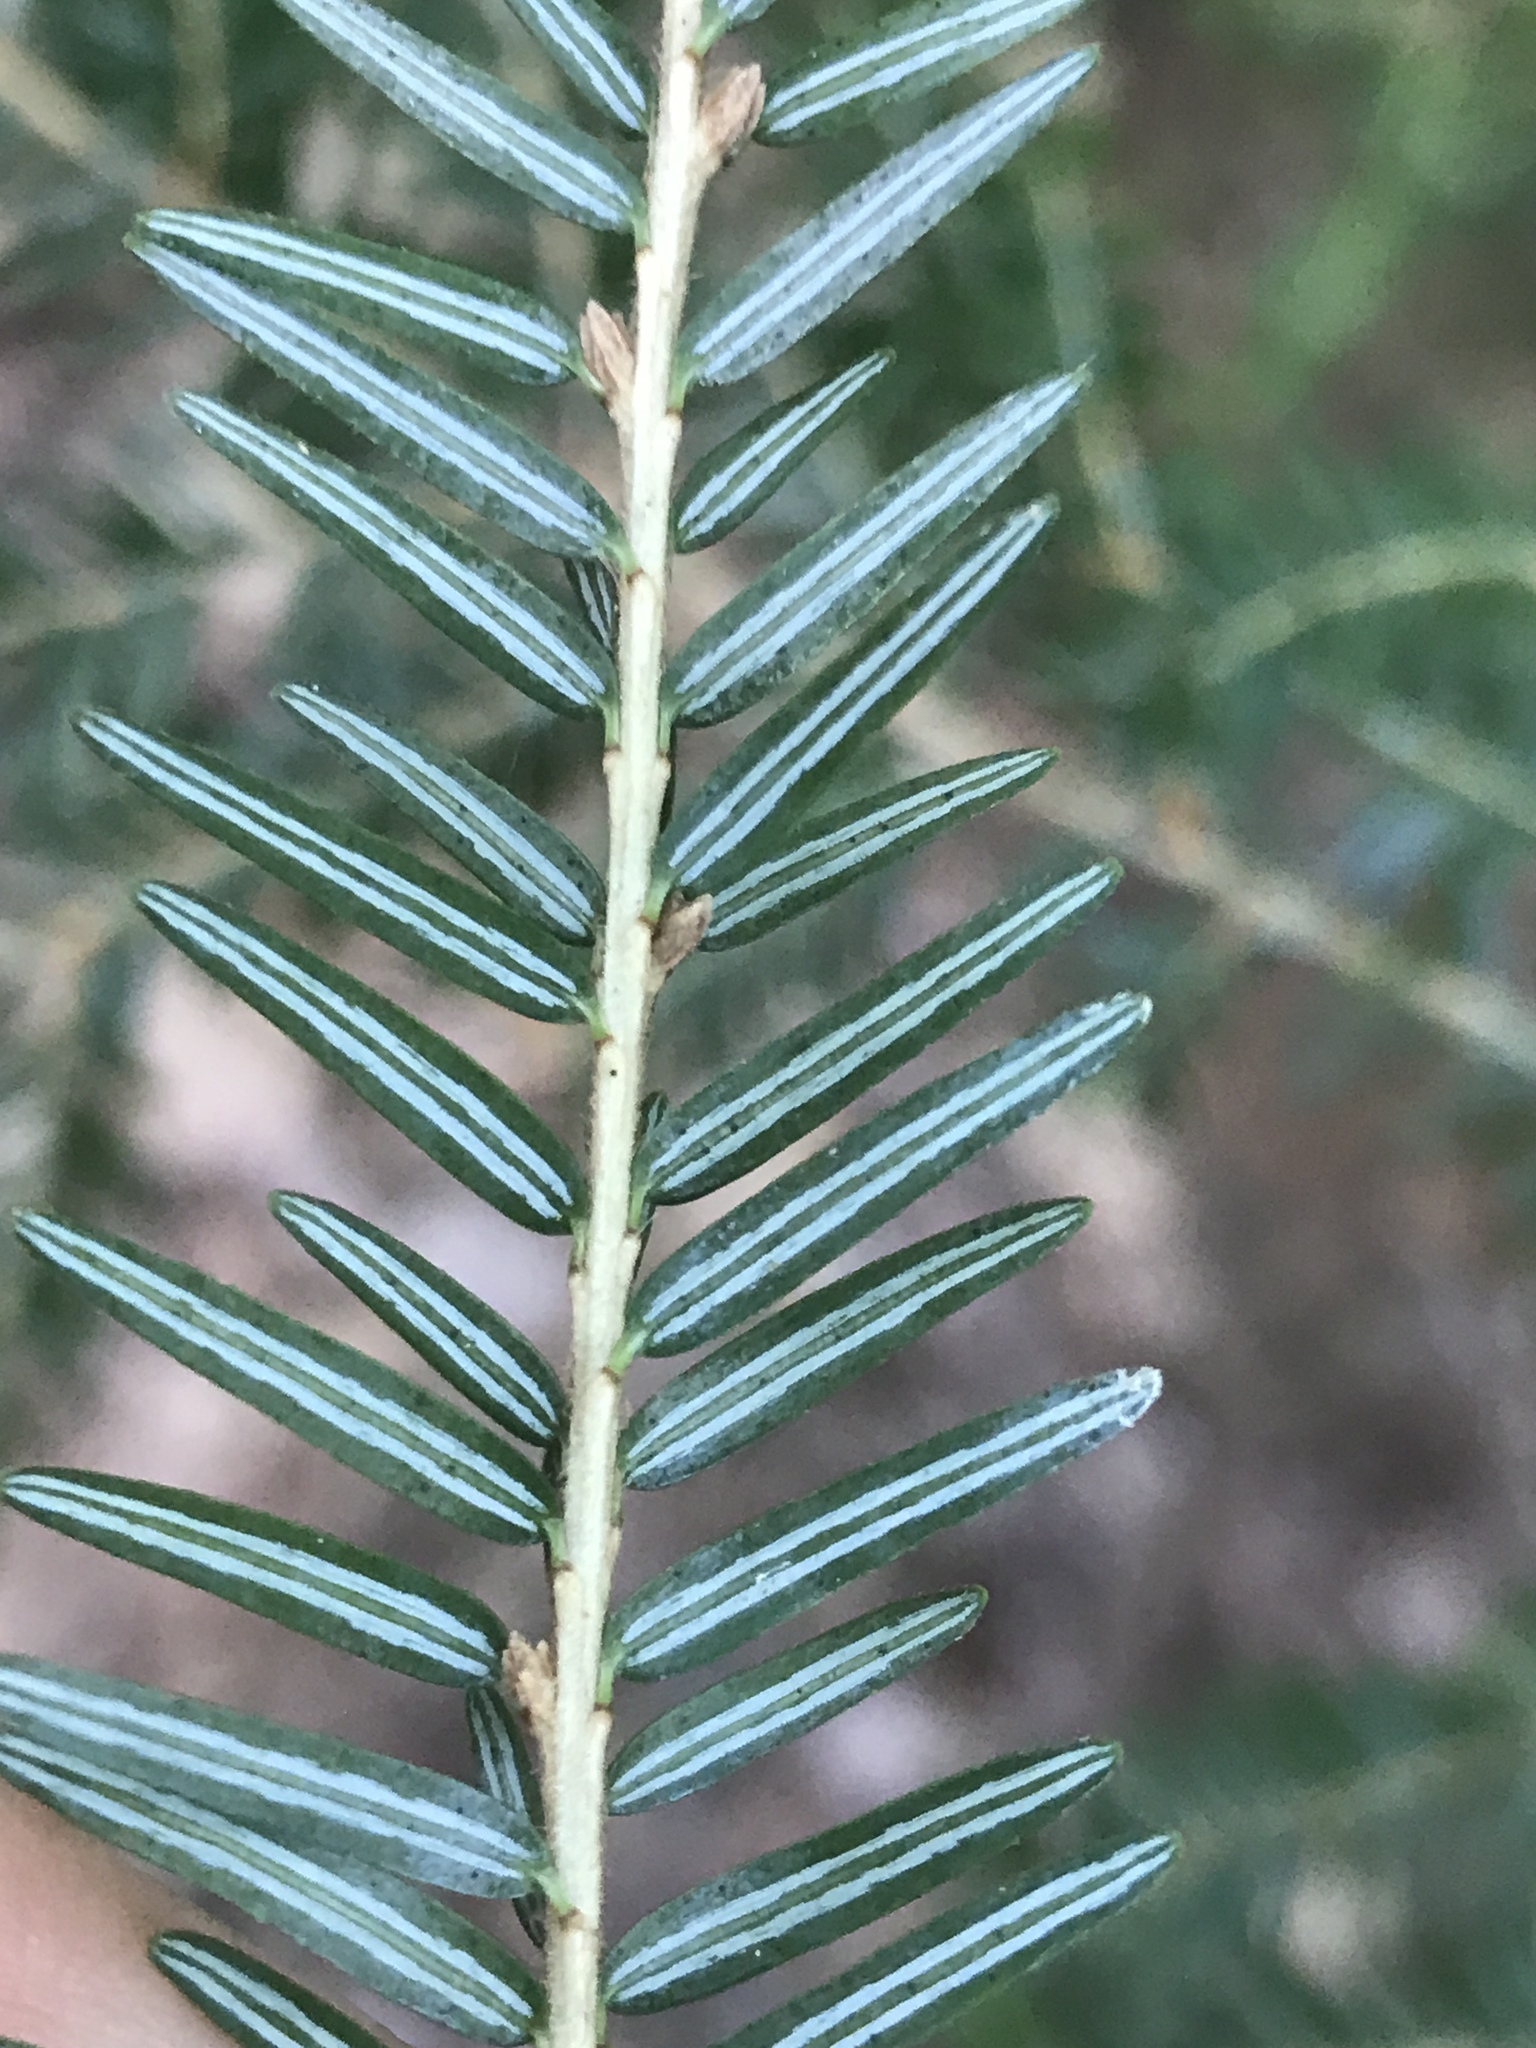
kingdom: Plantae
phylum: Tracheophyta
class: Pinopsida
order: Pinales
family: Pinaceae
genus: Tsuga
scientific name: Tsuga canadensis
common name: Eastern hemlock
